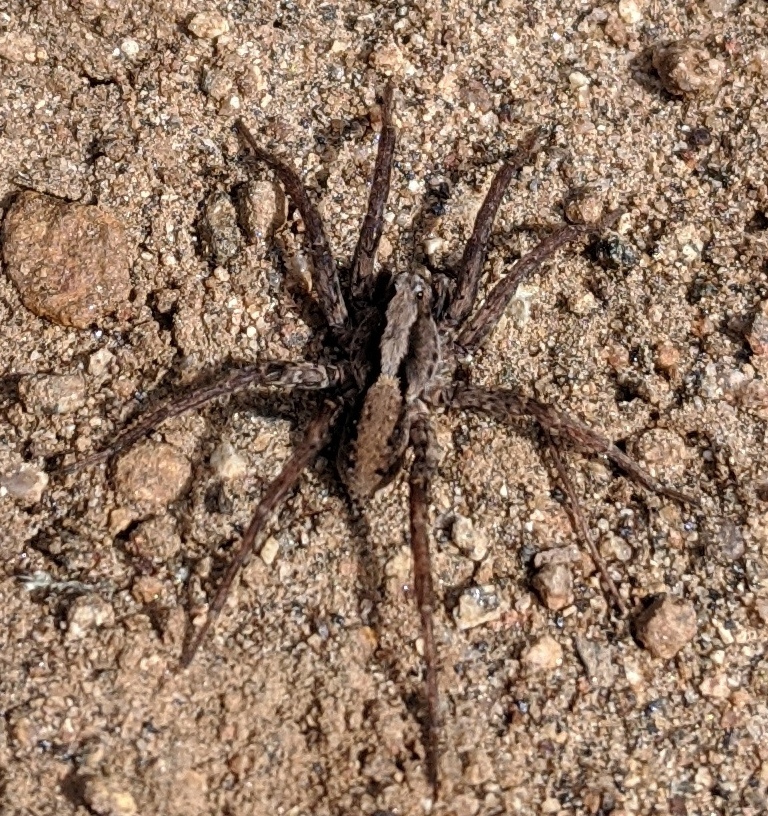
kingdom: Animalia
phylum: Arthropoda
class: Arachnida
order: Araneae
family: Lycosidae
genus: Alopecosa
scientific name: Alopecosa kochi
